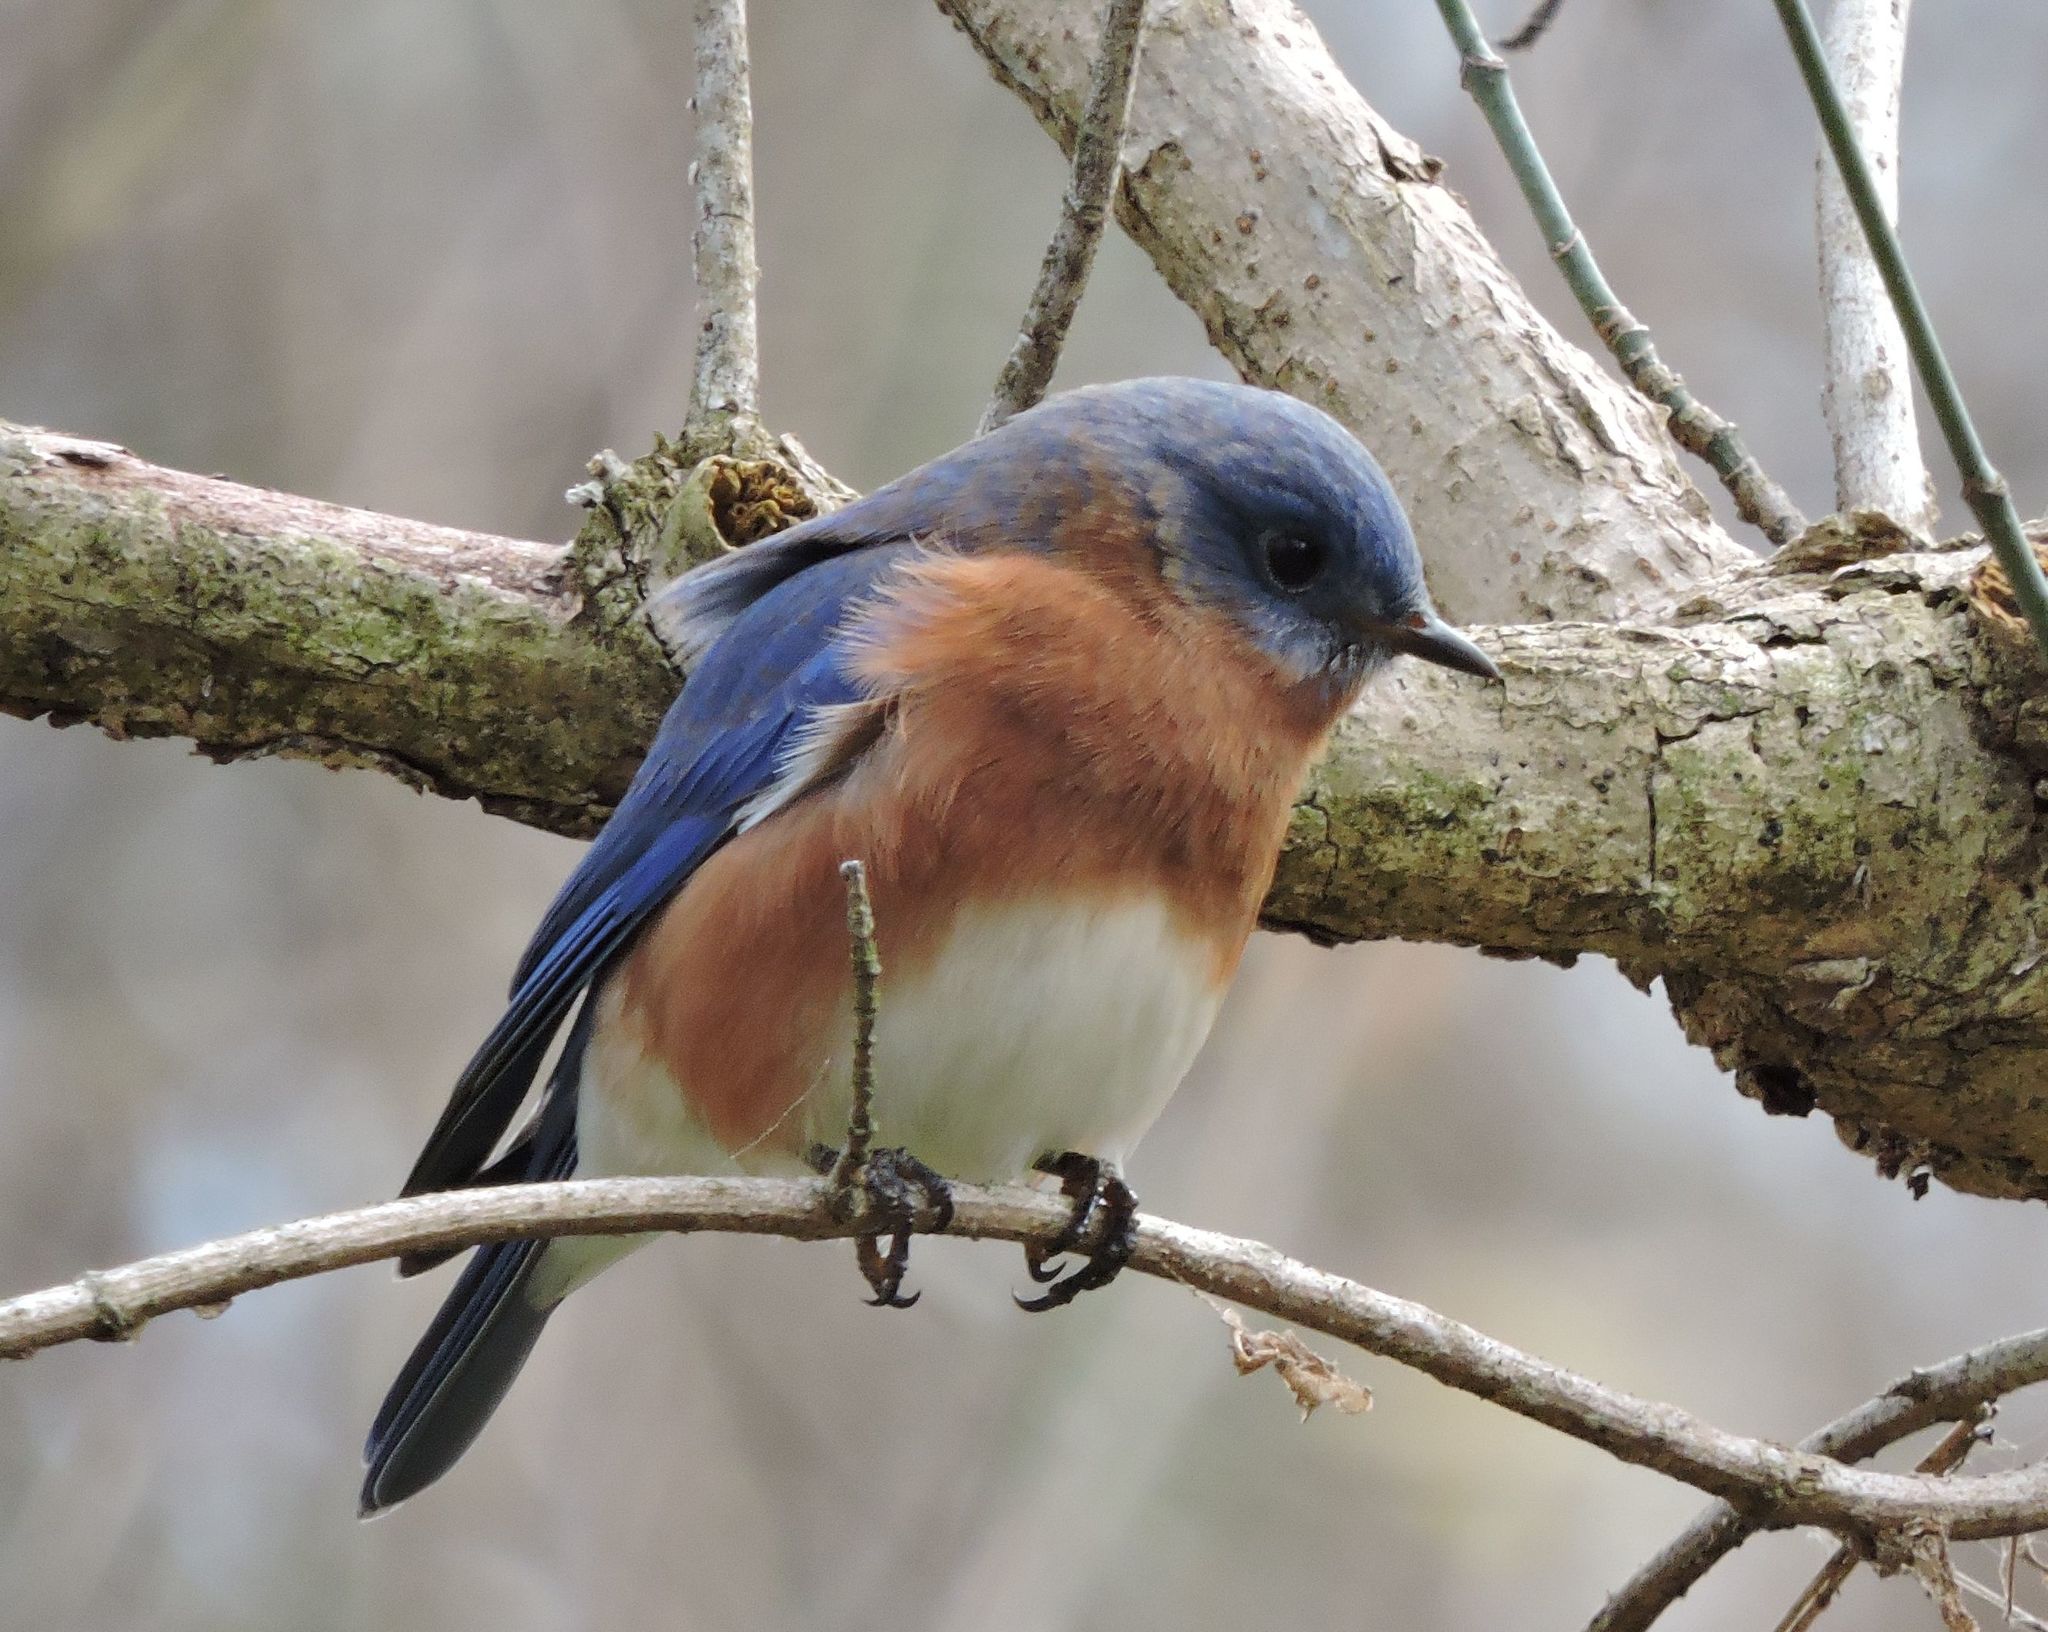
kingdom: Animalia
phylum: Chordata
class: Aves
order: Passeriformes
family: Turdidae
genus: Sialia
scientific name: Sialia sialis
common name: Eastern bluebird
